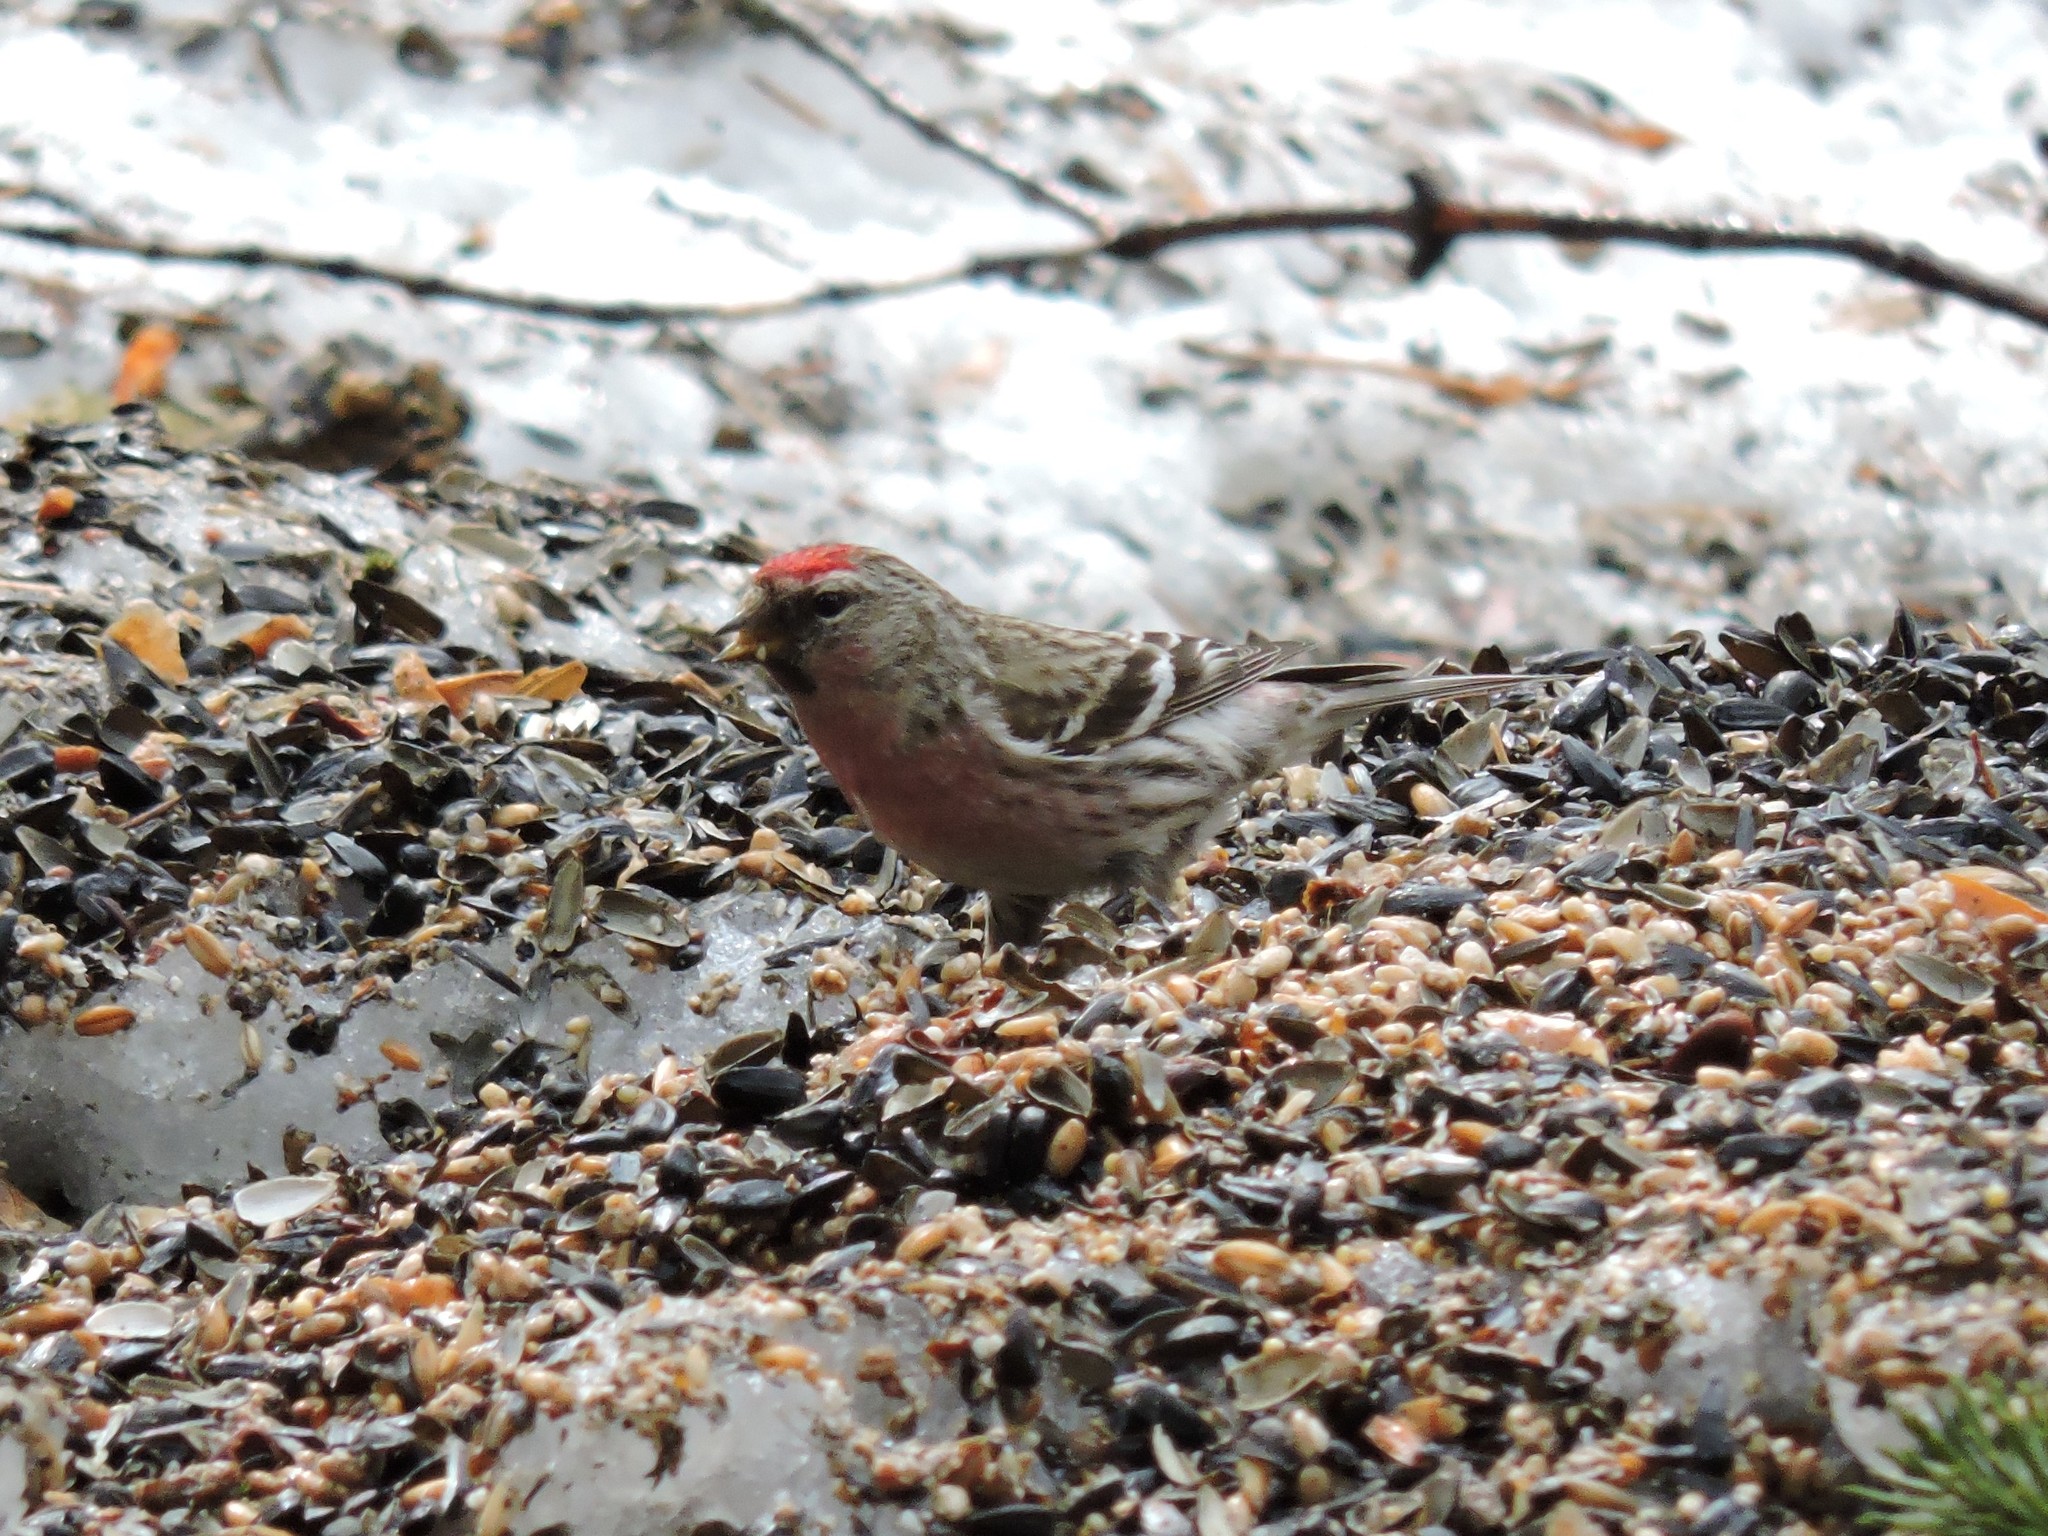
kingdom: Animalia
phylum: Chordata
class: Aves
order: Passeriformes
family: Fringillidae
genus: Acanthis
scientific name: Acanthis flammea
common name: Common redpoll
